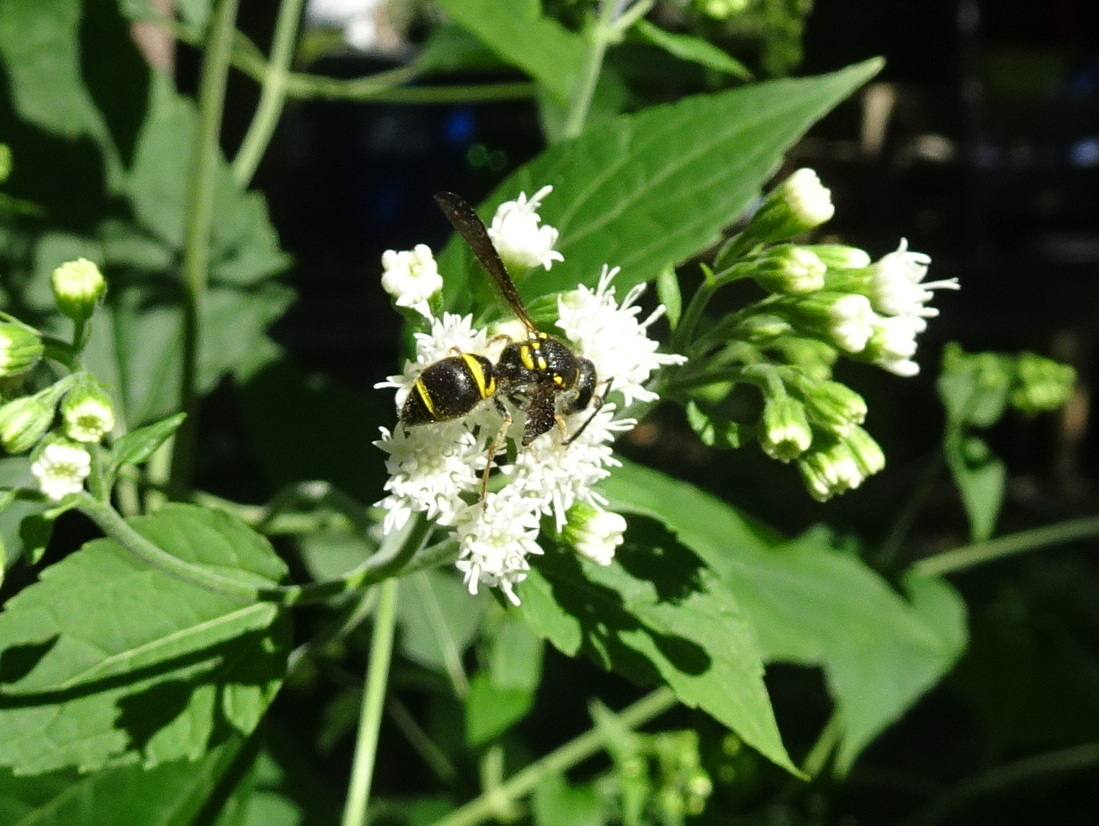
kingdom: Animalia
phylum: Arthropoda
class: Insecta
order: Hymenoptera
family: Vespidae
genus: Ancistrocerus
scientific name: Ancistrocerus campestris
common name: Smiling mason wasp
